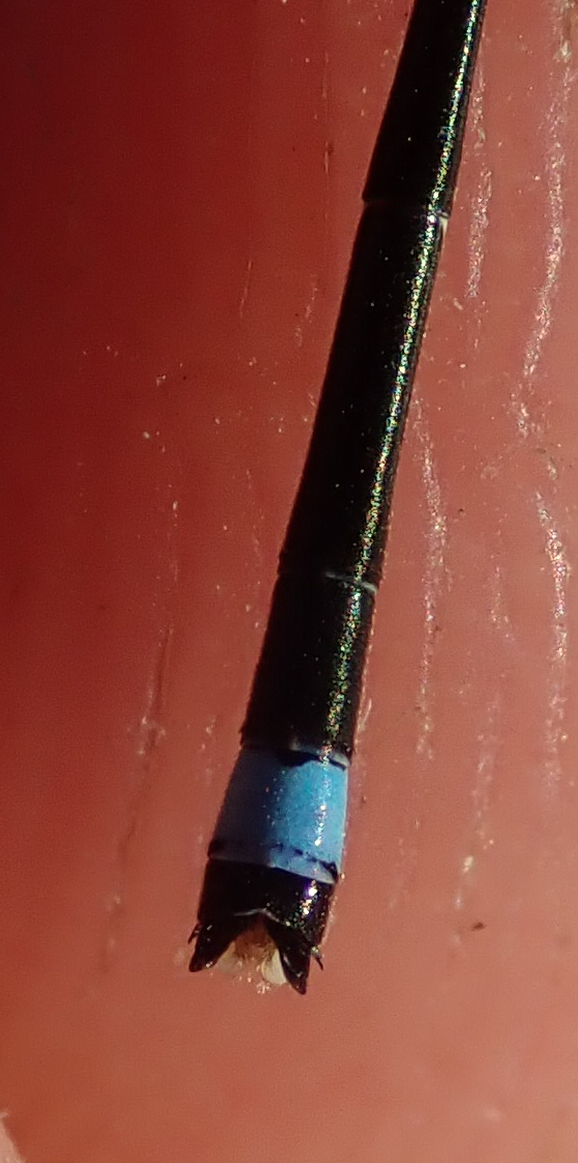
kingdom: Animalia
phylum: Arthropoda
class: Insecta
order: Odonata
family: Coenagrionidae
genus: Pinheyagrion
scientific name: Pinheyagrion angolicum
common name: Angola bluet
